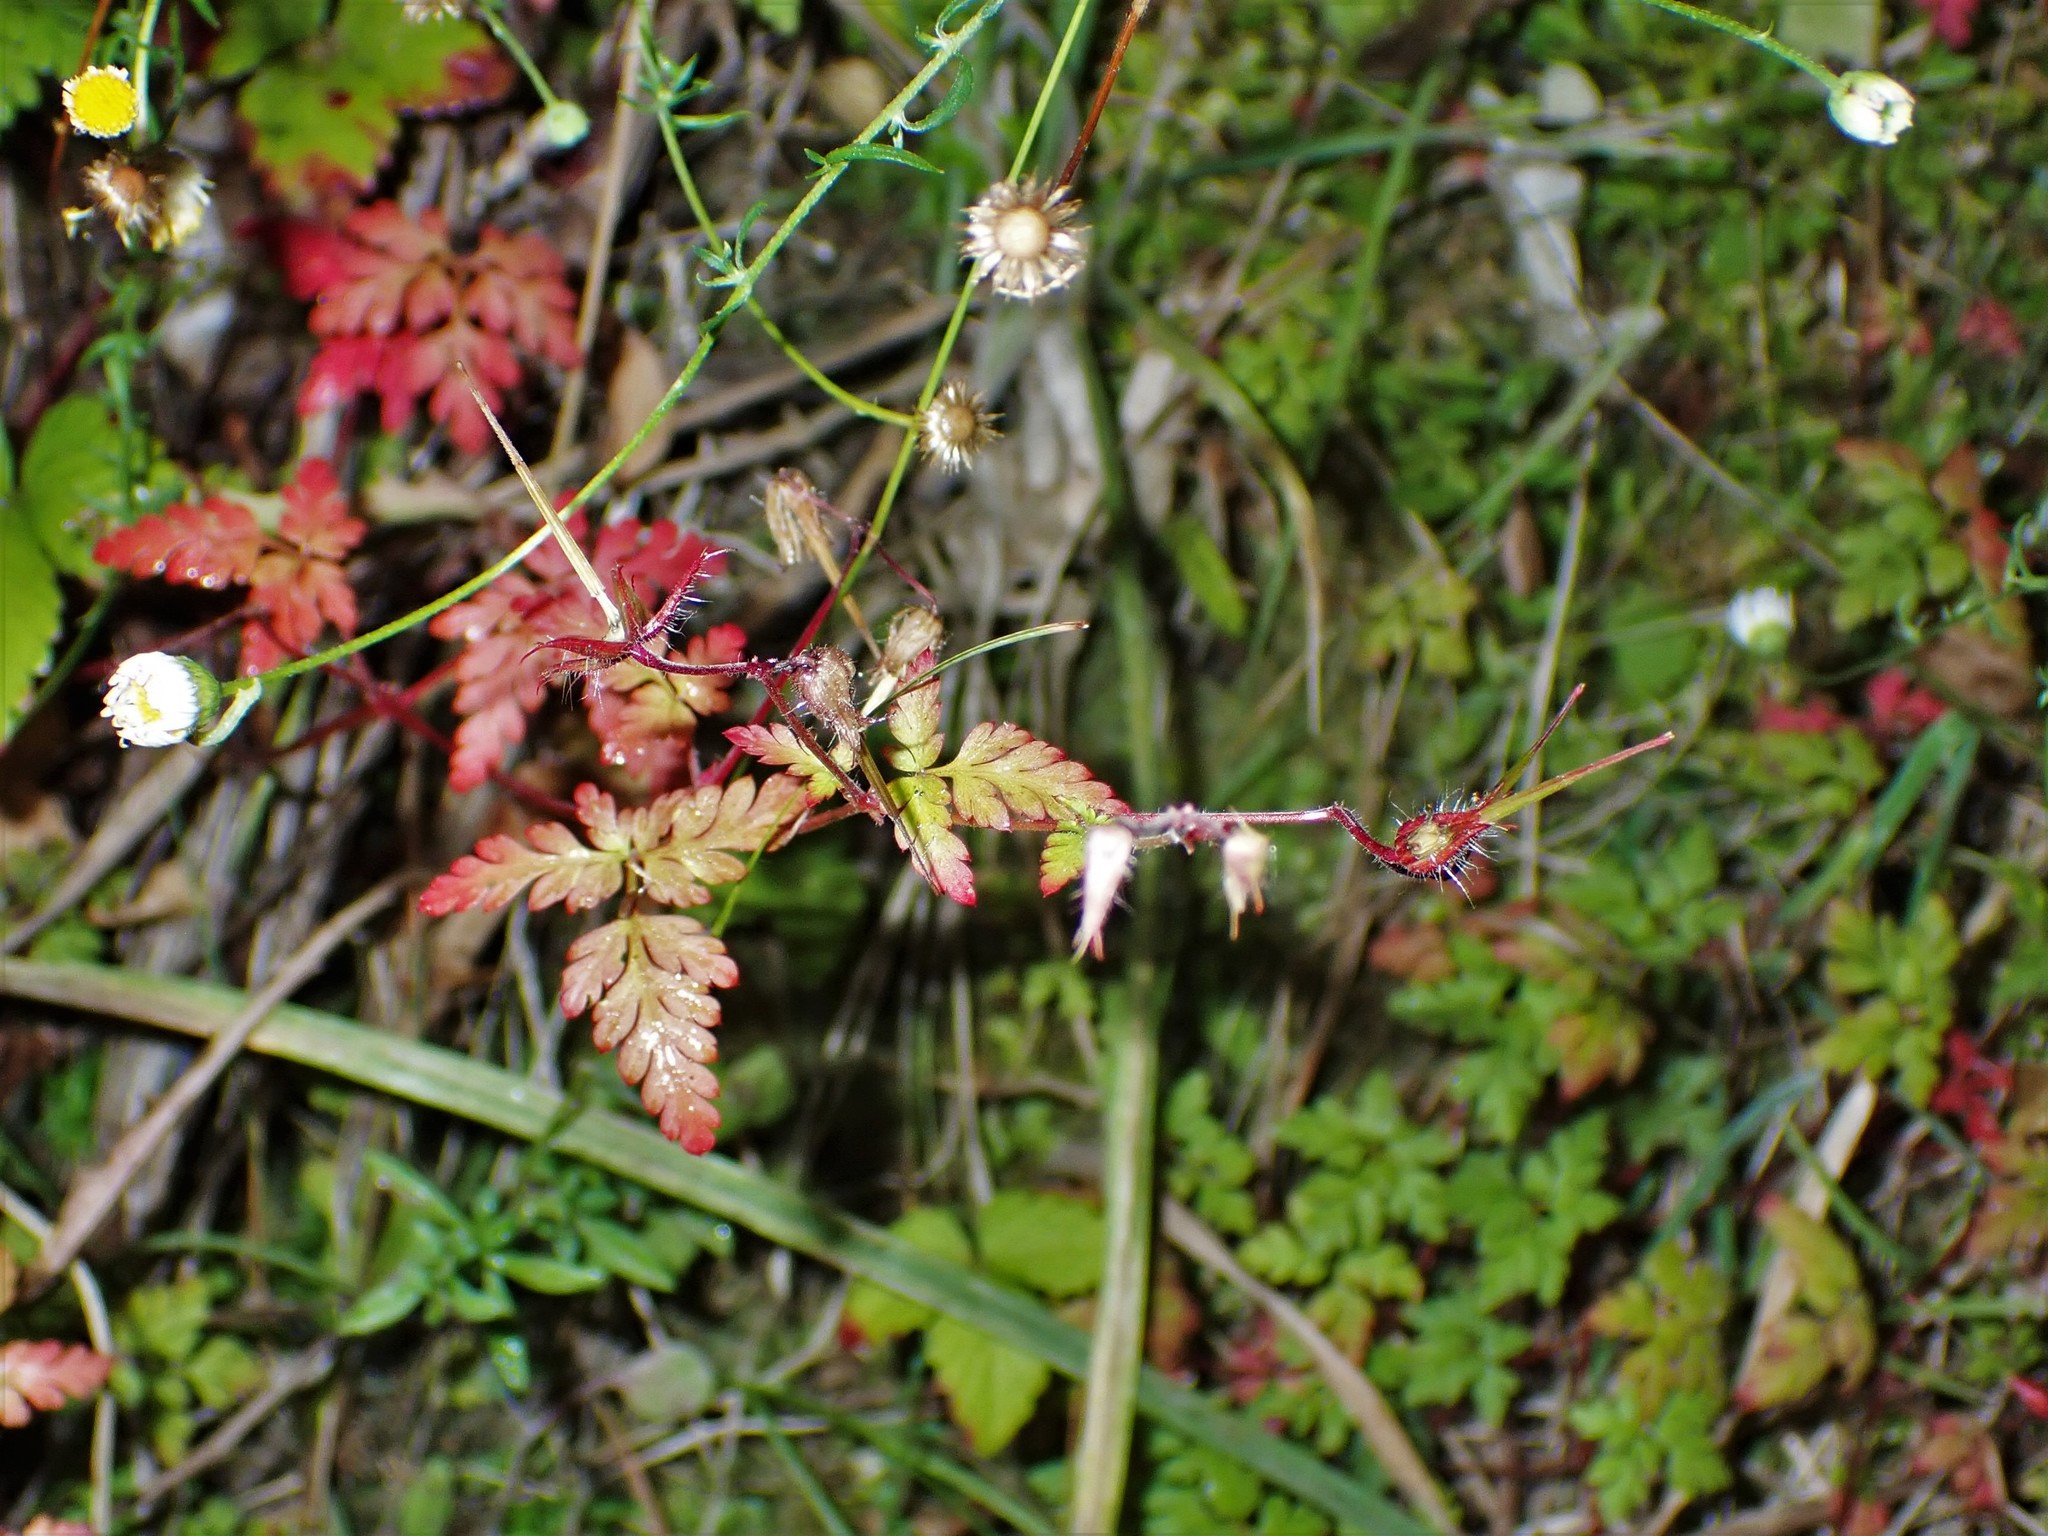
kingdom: Plantae
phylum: Tracheophyta
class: Magnoliopsida
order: Geraniales
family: Geraniaceae
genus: Geranium
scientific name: Geranium robertianum
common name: Herb-robert
